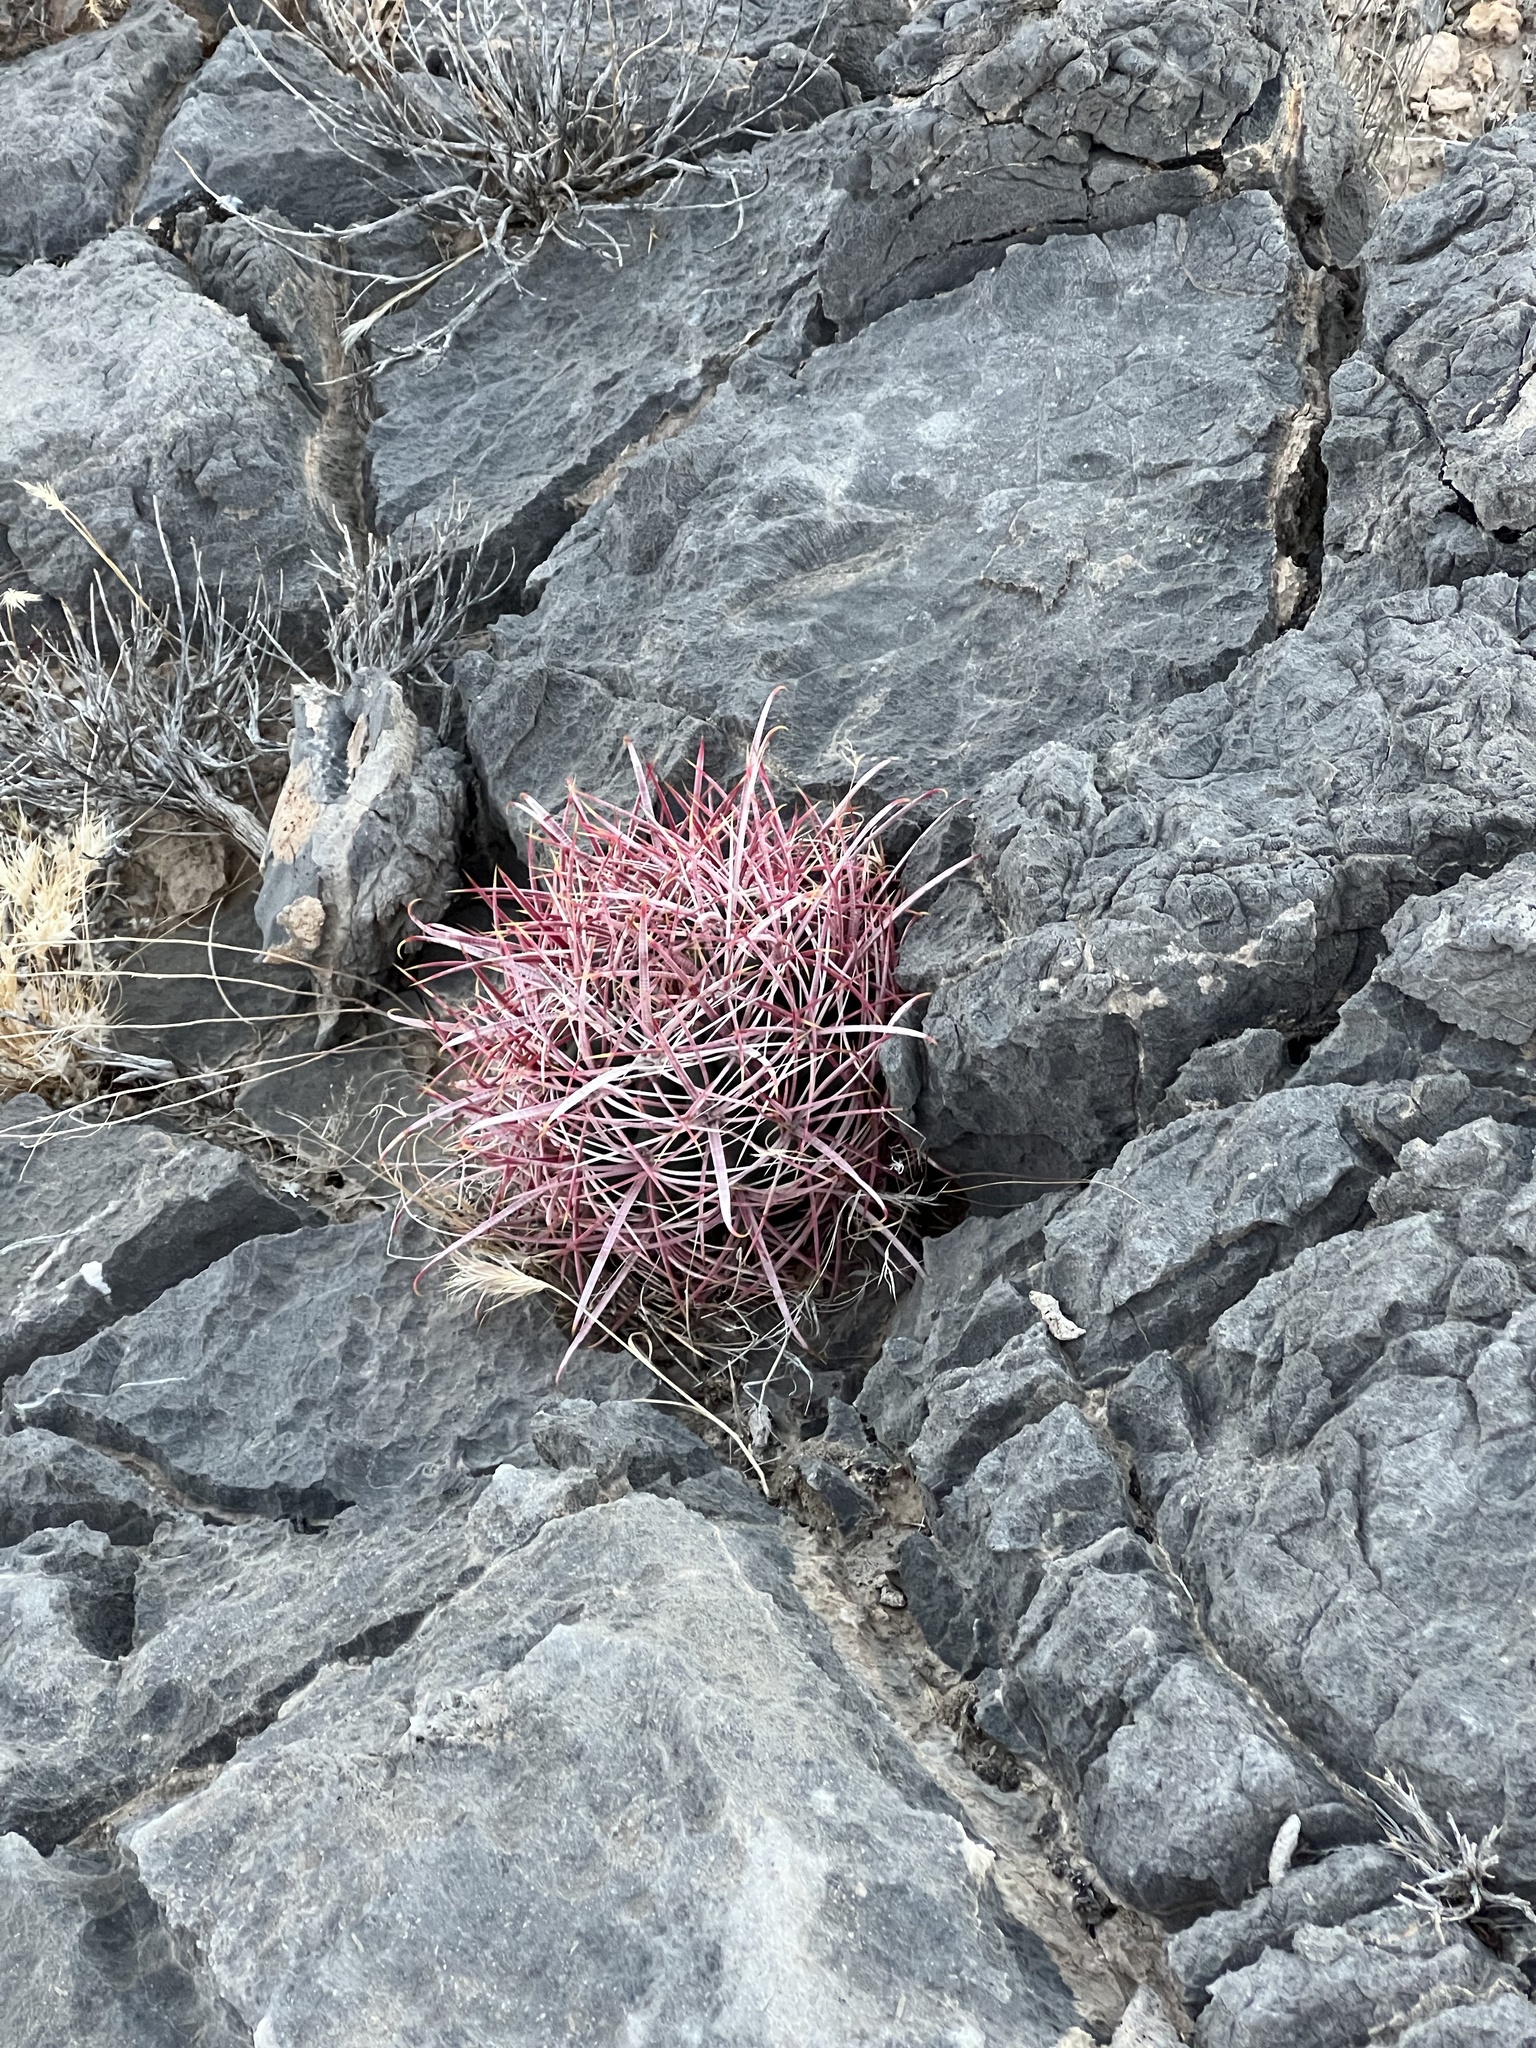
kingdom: Plantae
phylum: Tracheophyta
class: Magnoliopsida
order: Caryophyllales
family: Cactaceae
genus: Ferocactus
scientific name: Ferocactus cylindraceus
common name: California barrel cactus
